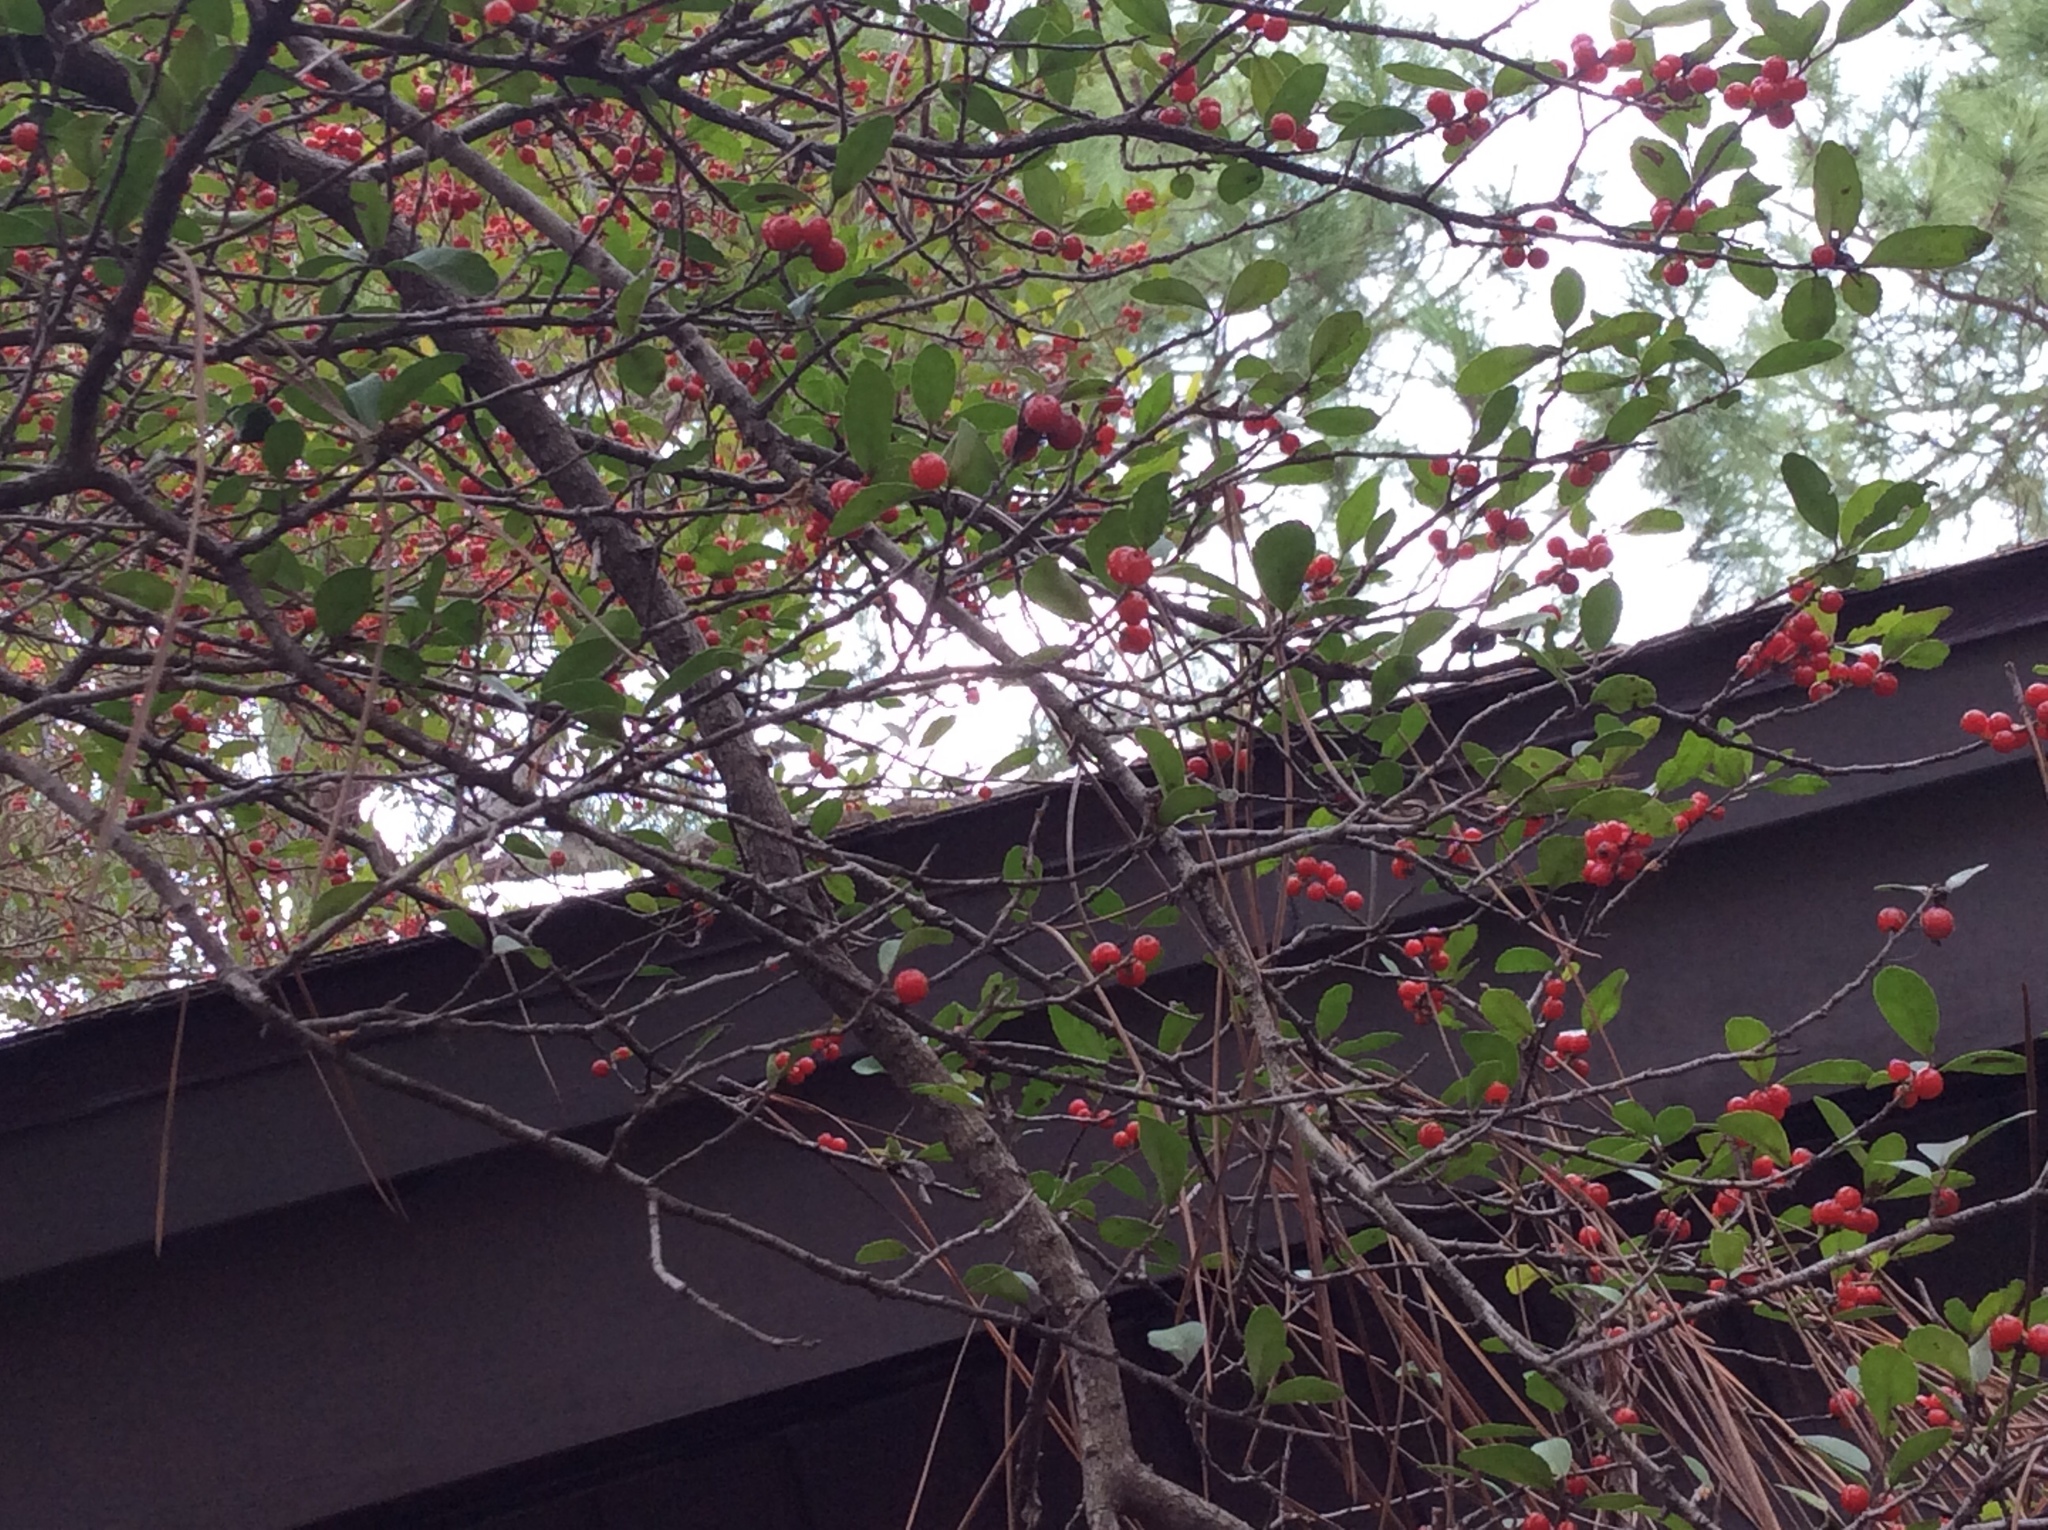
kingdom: Plantae
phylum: Tracheophyta
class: Magnoliopsida
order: Aquifoliales
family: Aquifoliaceae
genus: Ilex
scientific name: Ilex vomitoria
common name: Yaupon holly
